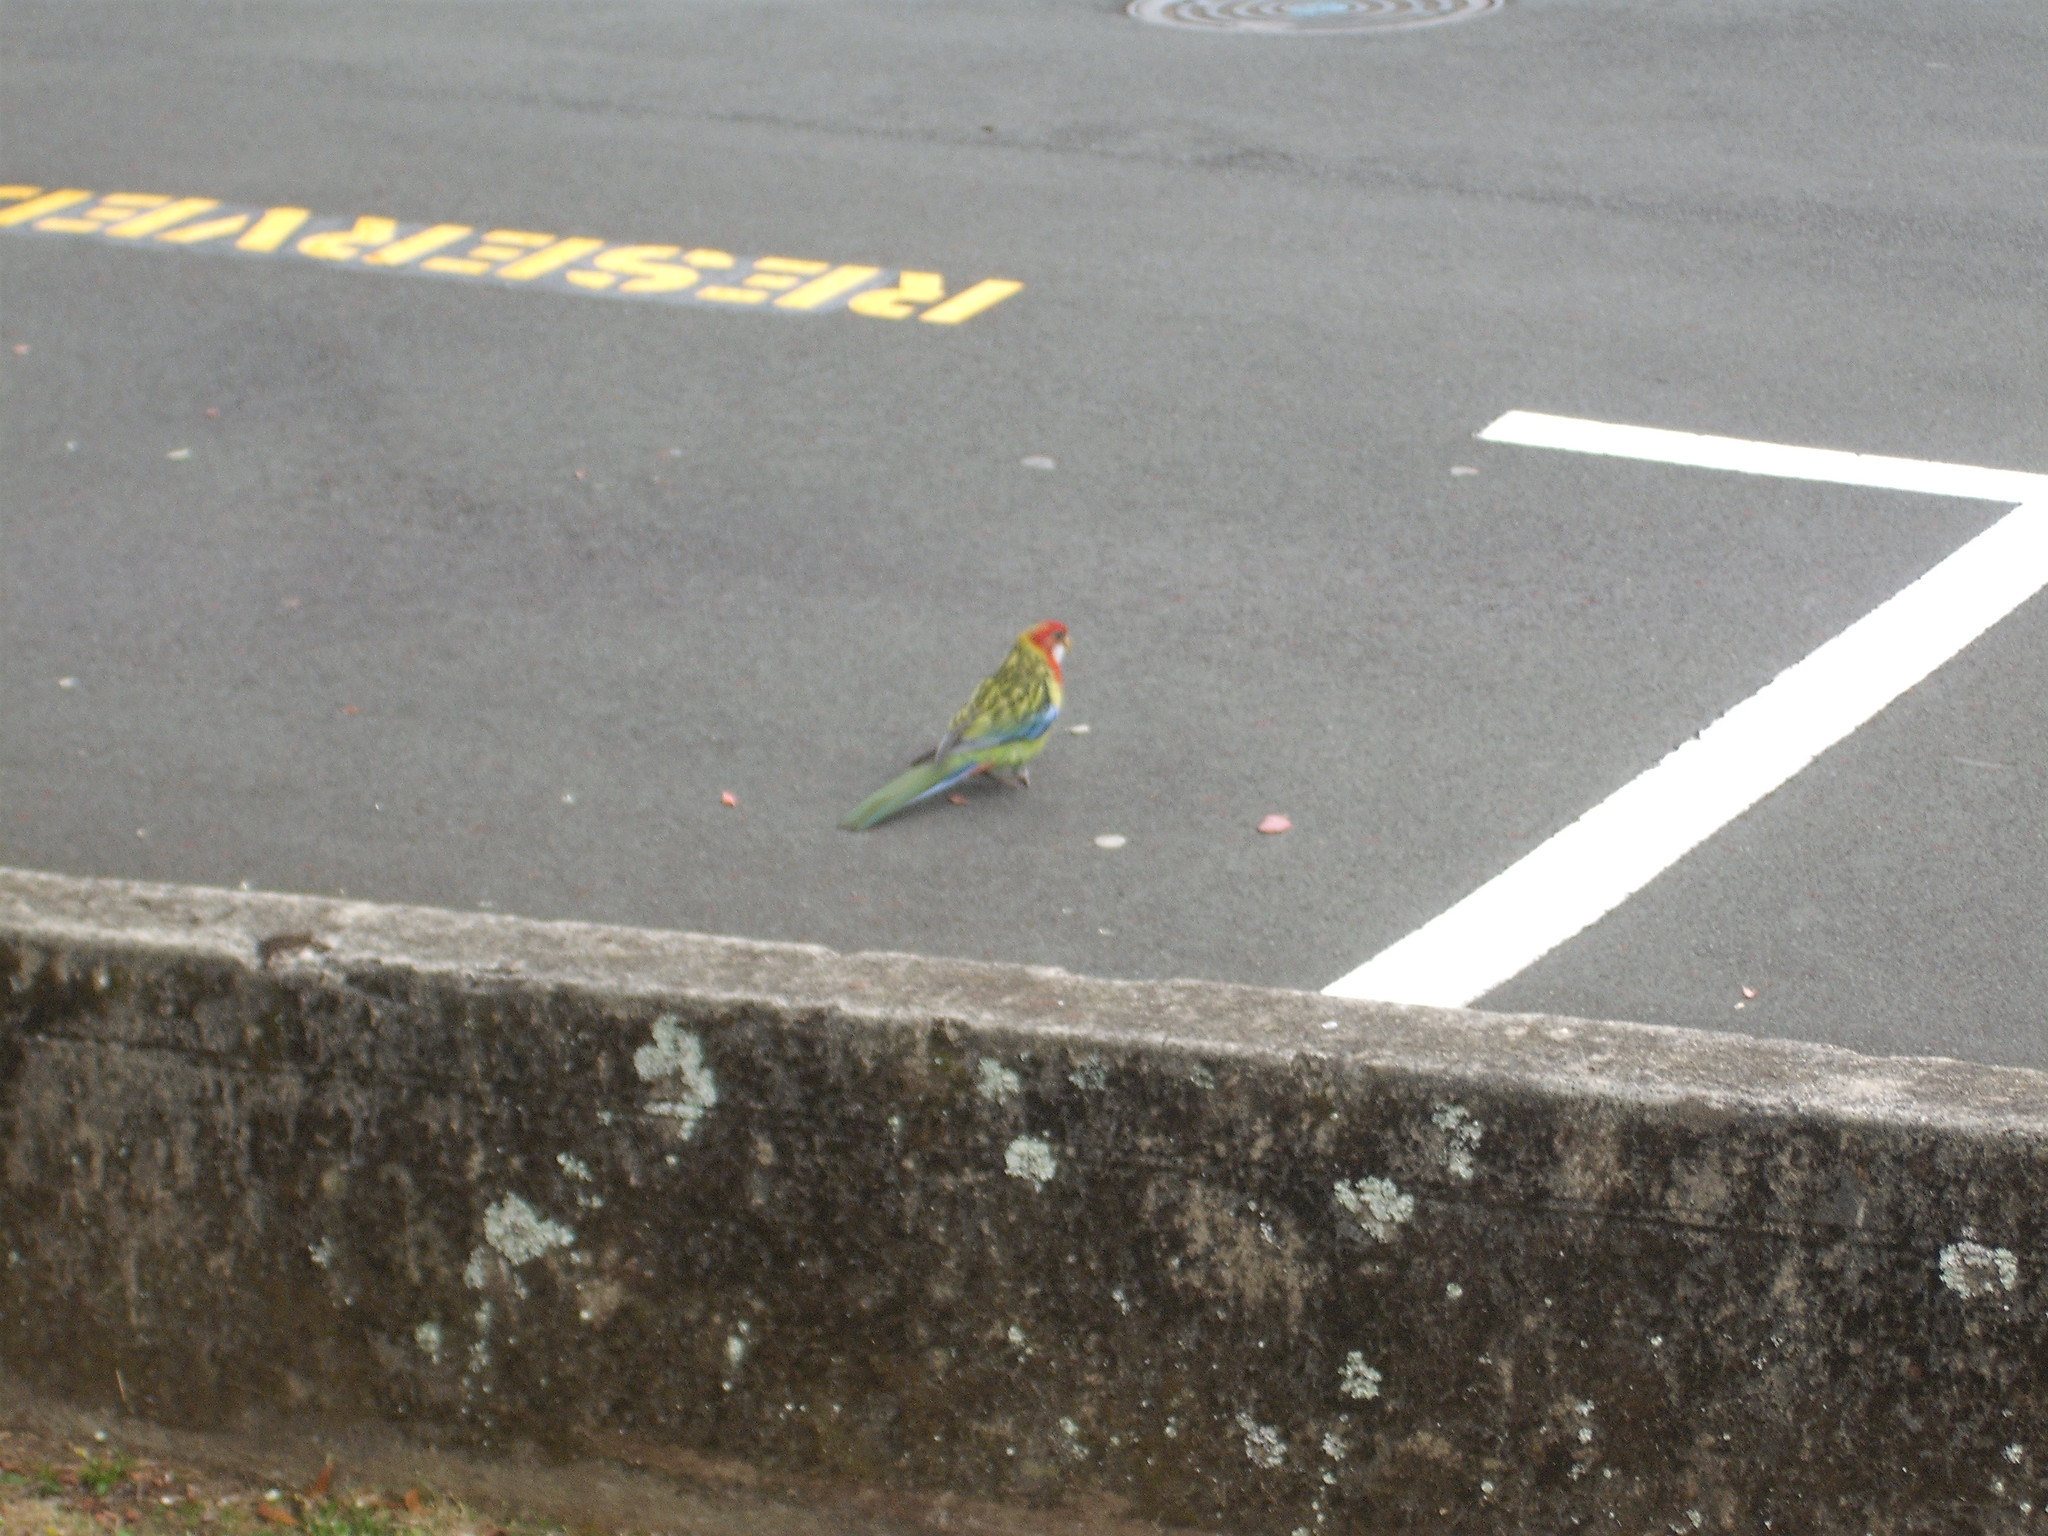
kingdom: Animalia
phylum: Chordata
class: Aves
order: Psittaciformes
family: Psittacidae
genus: Platycercus
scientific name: Platycercus eximius
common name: Eastern rosella
